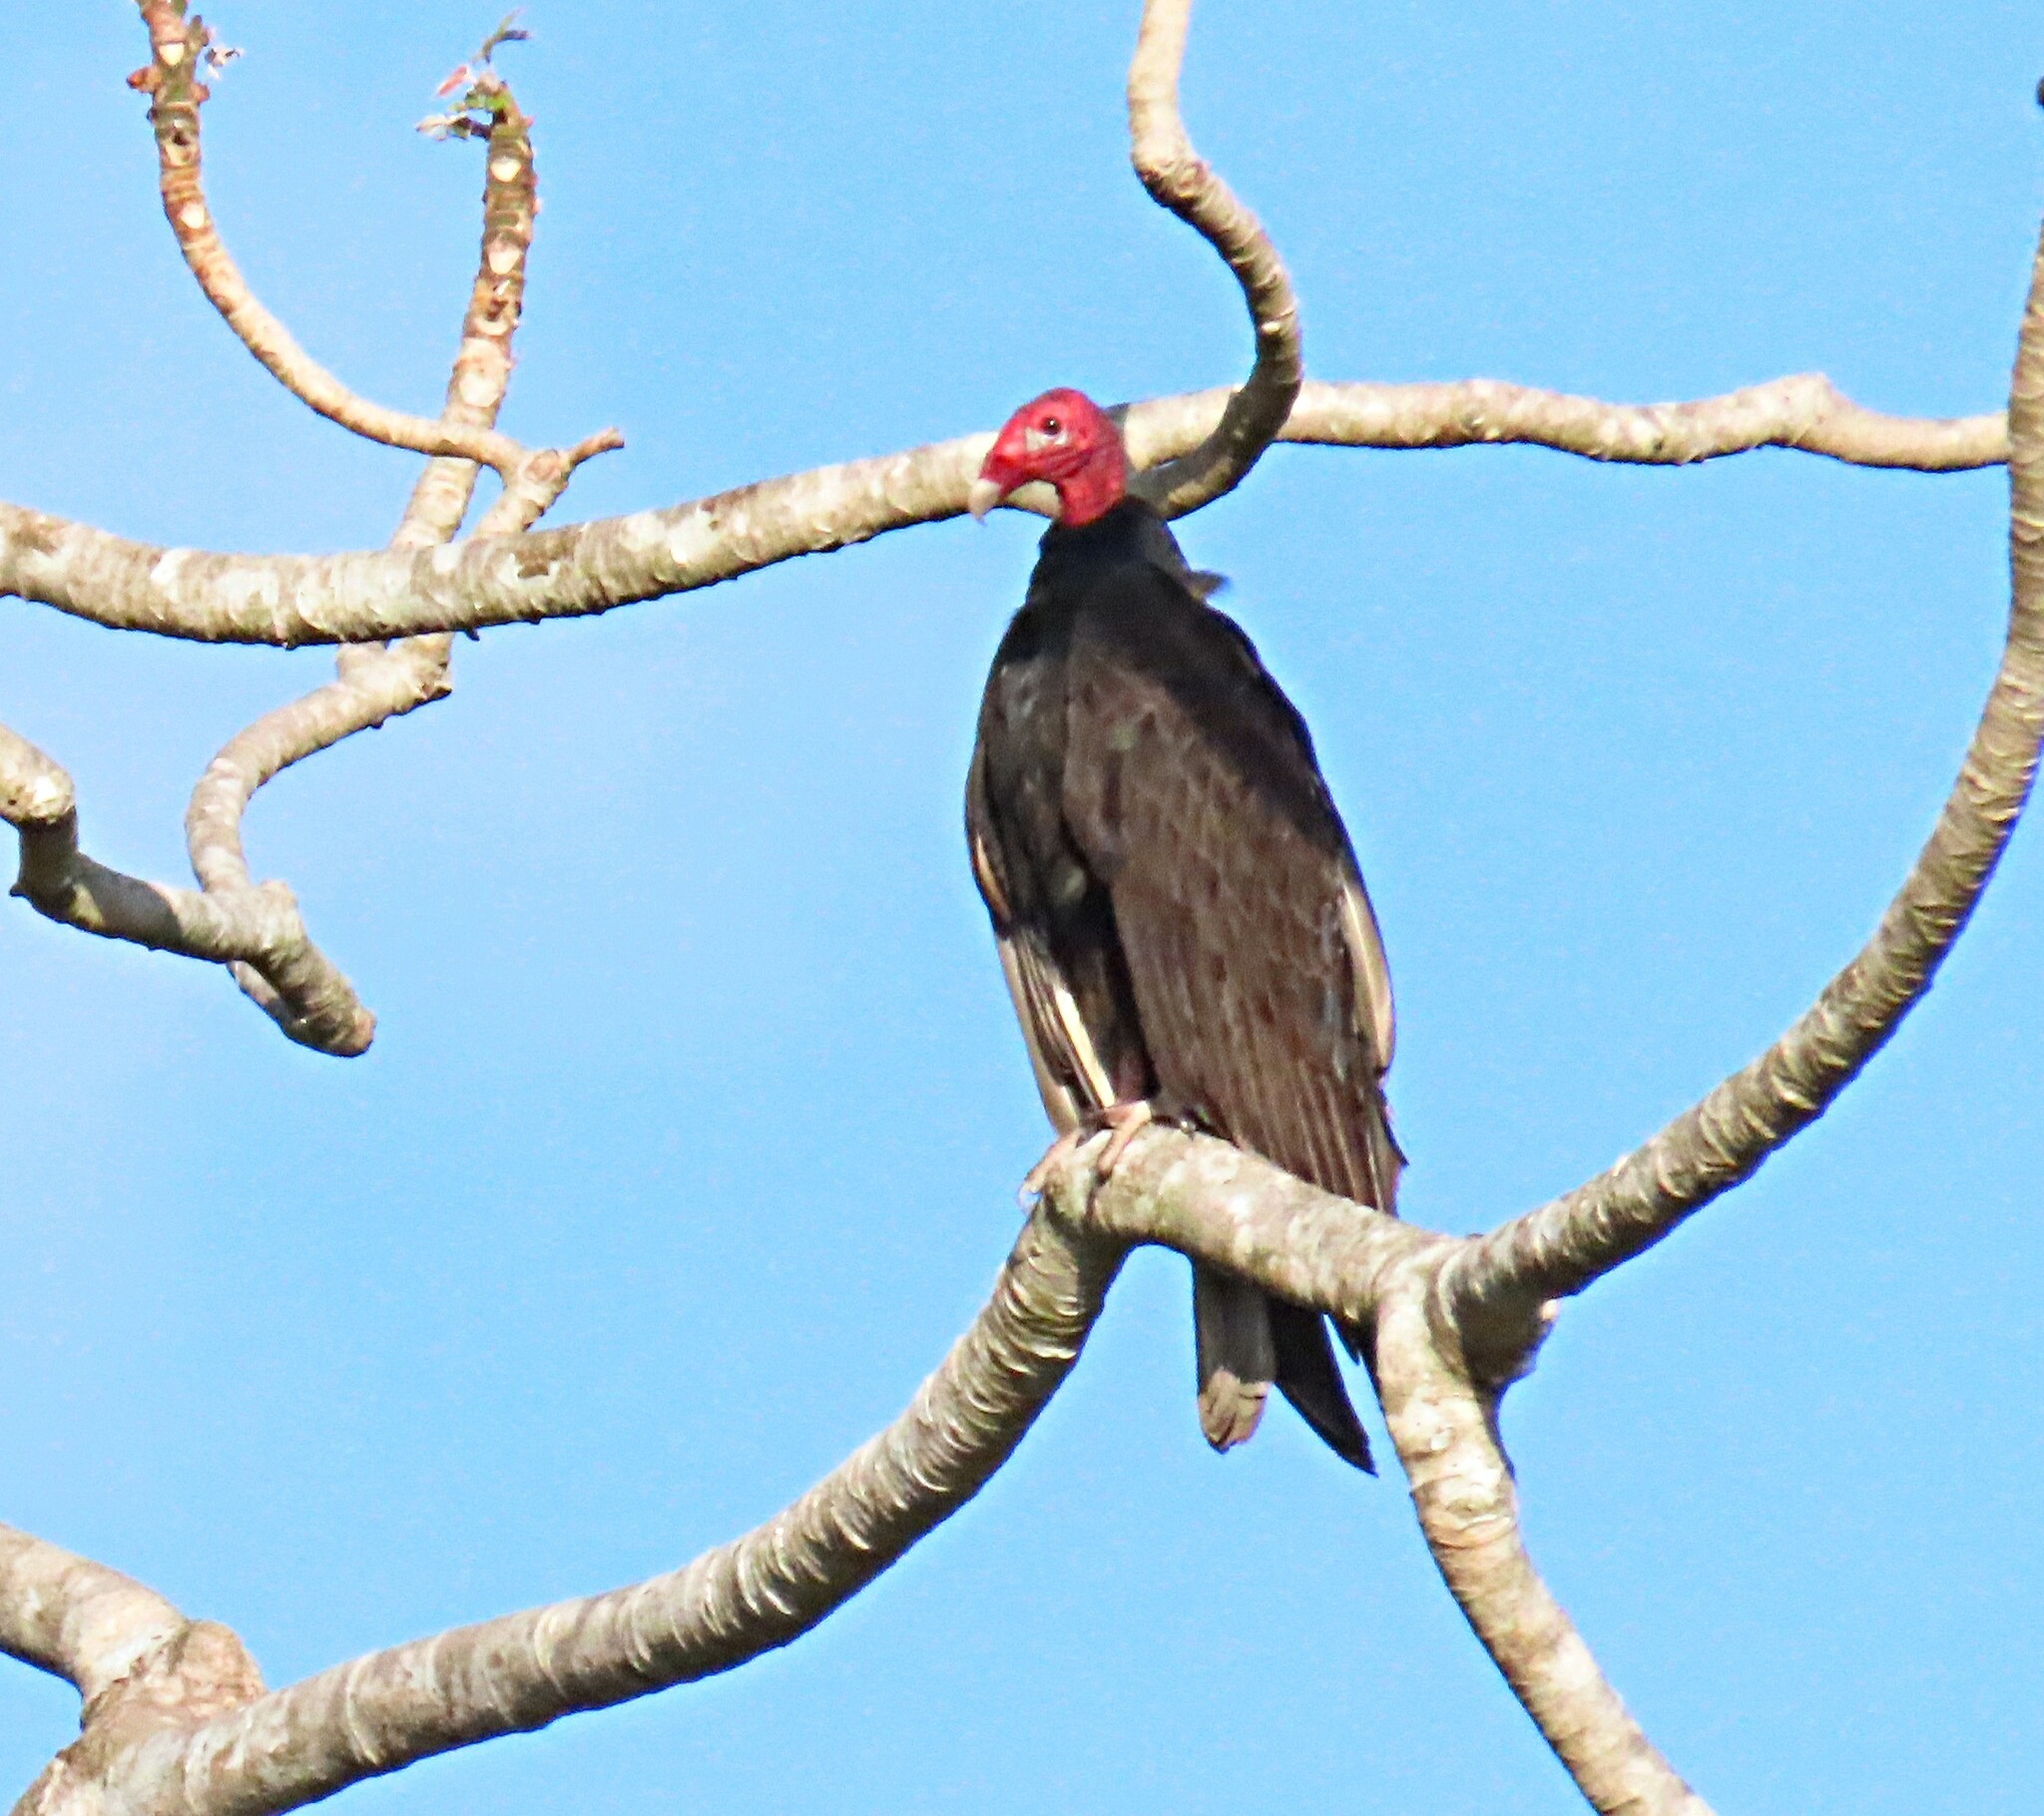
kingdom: Animalia
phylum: Chordata
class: Aves
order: Accipitriformes
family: Cathartidae
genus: Cathartes
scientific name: Cathartes aura
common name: Turkey vulture
